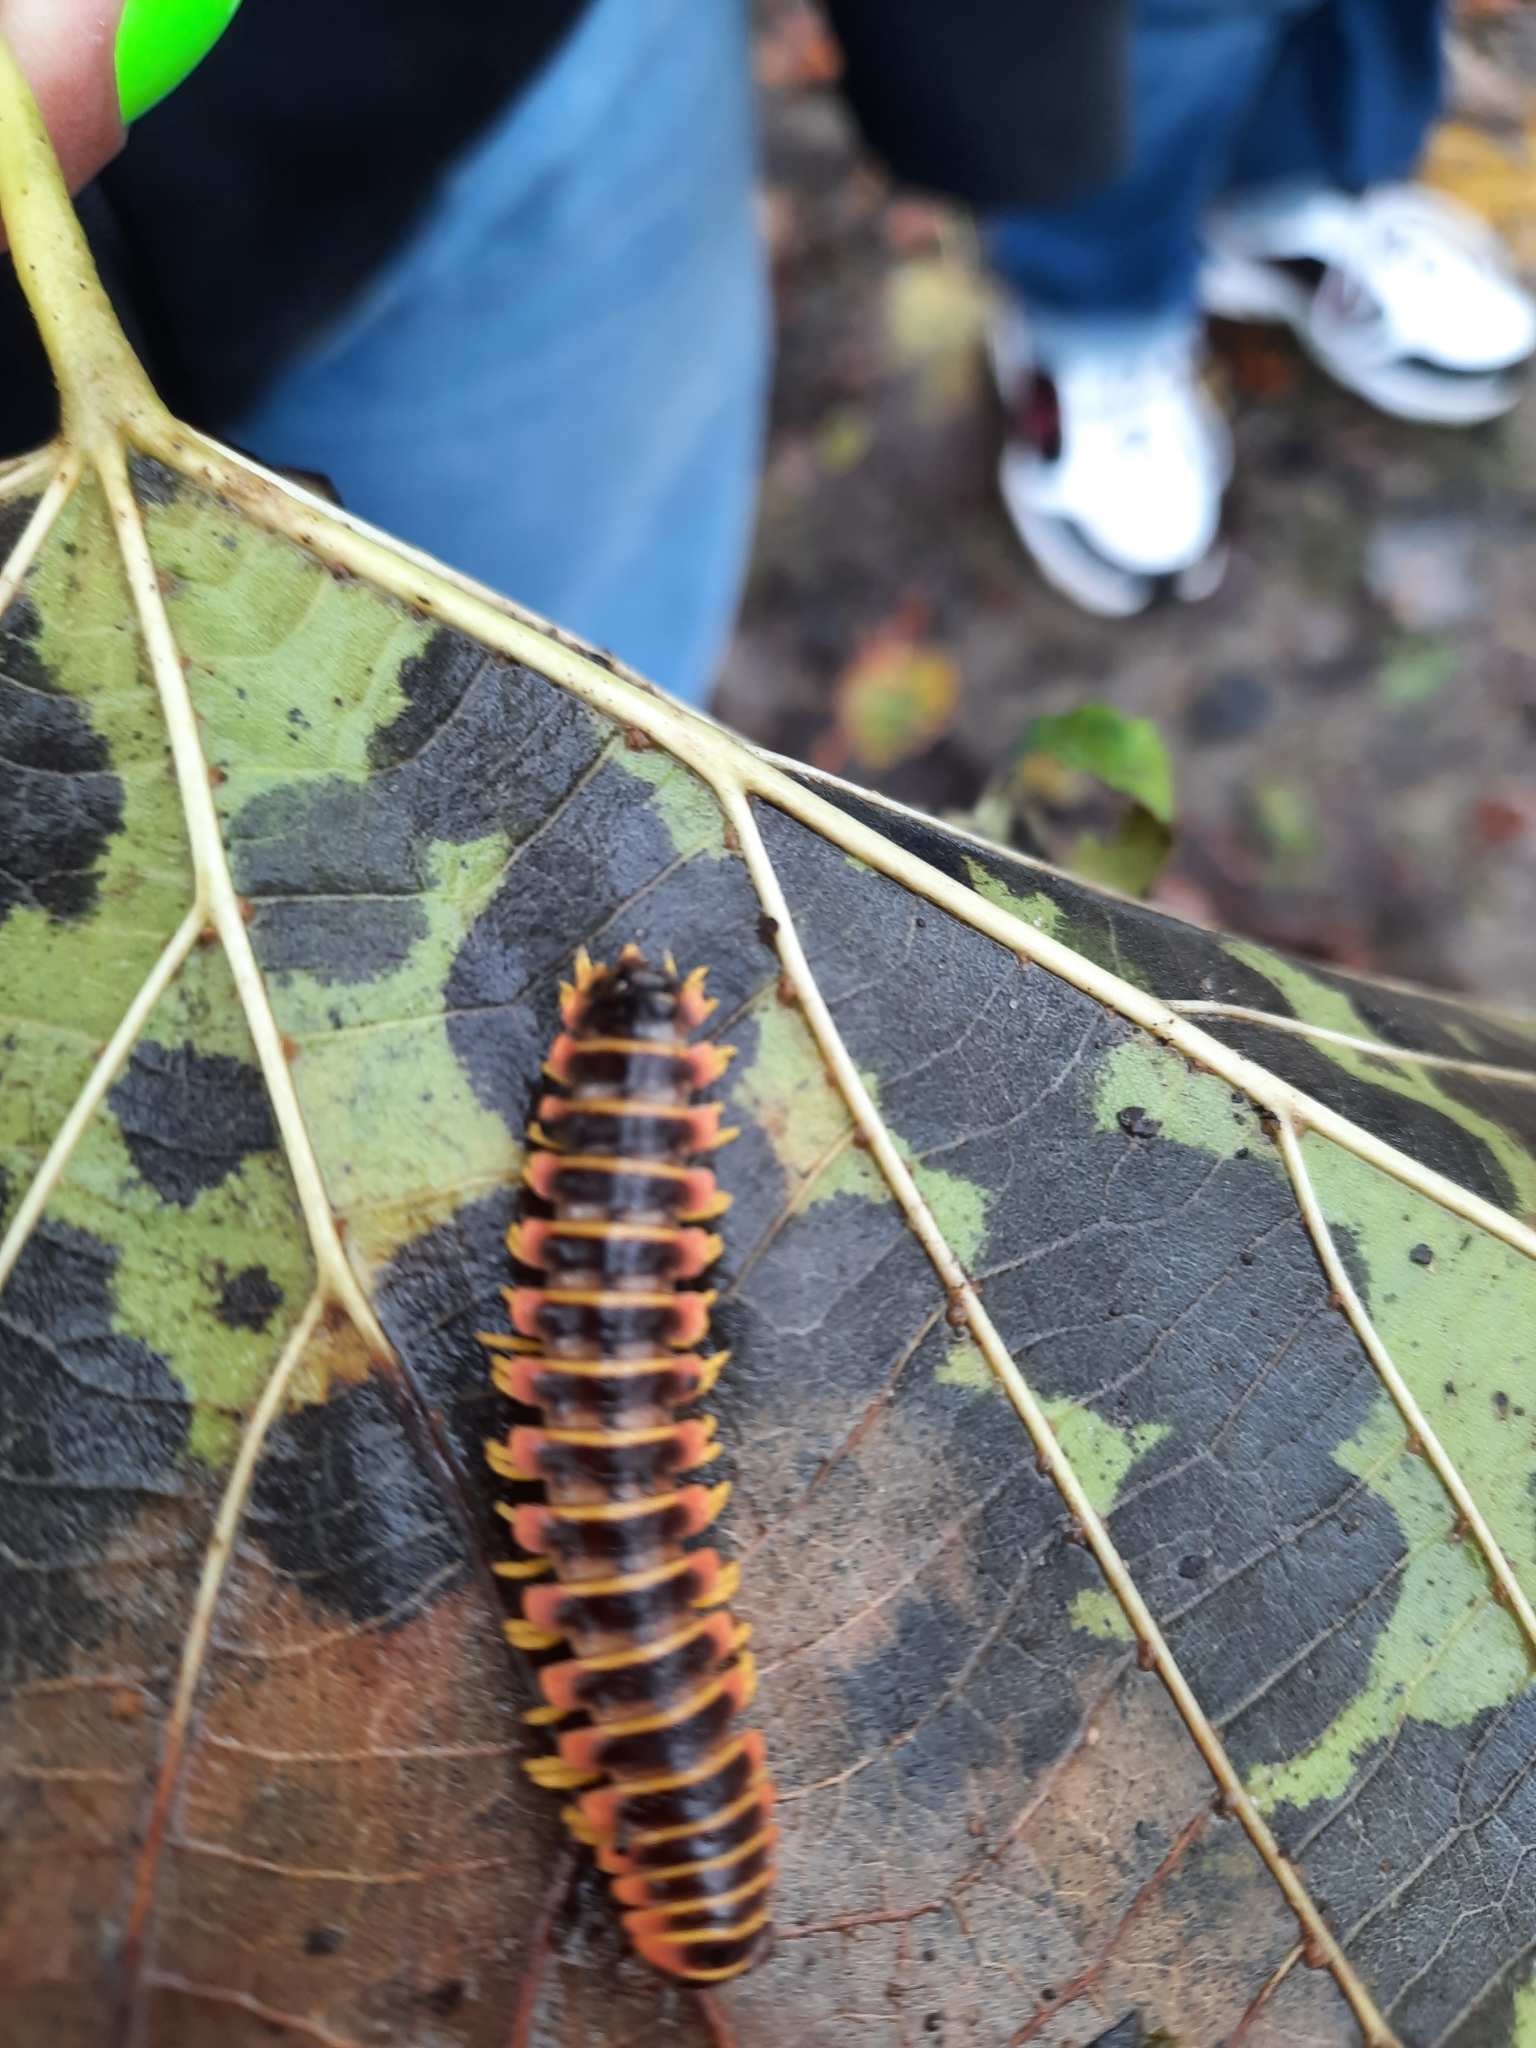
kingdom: Animalia
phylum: Arthropoda
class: Diplopoda
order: Polydesmida
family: Xystodesmidae
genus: Apheloria
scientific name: Apheloria virginiensis
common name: Black-and-gold flat millipede
